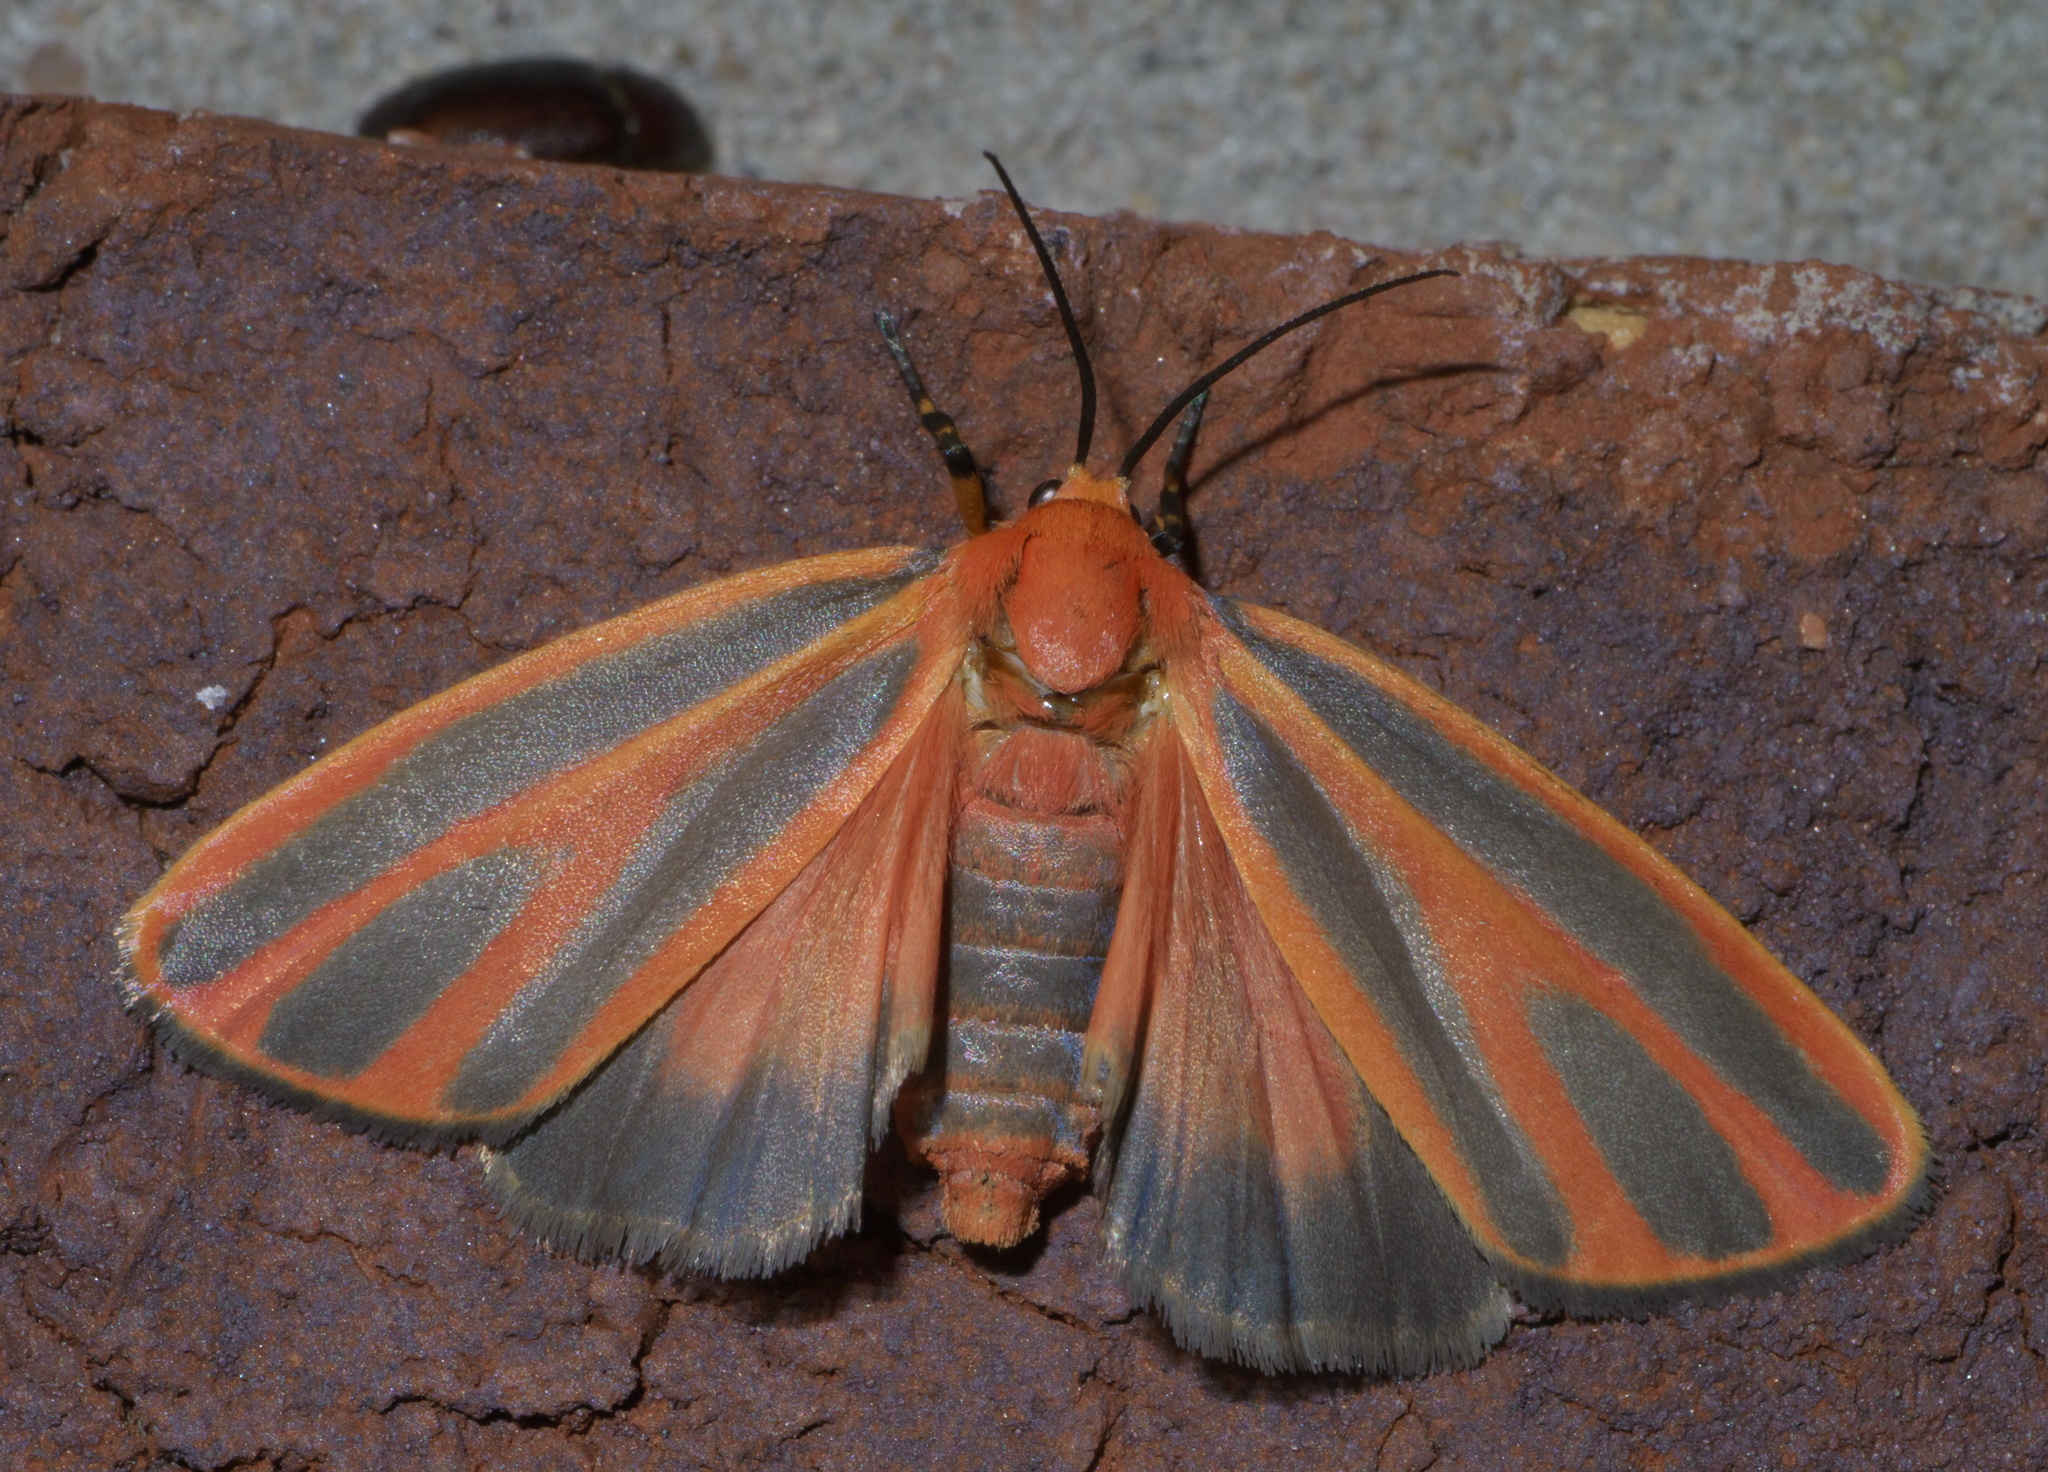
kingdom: Animalia
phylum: Arthropoda
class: Insecta
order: Lepidoptera
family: Erebidae
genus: Hypoprepia
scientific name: Hypoprepia miniata
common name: Scarlet-winged lichen moth
